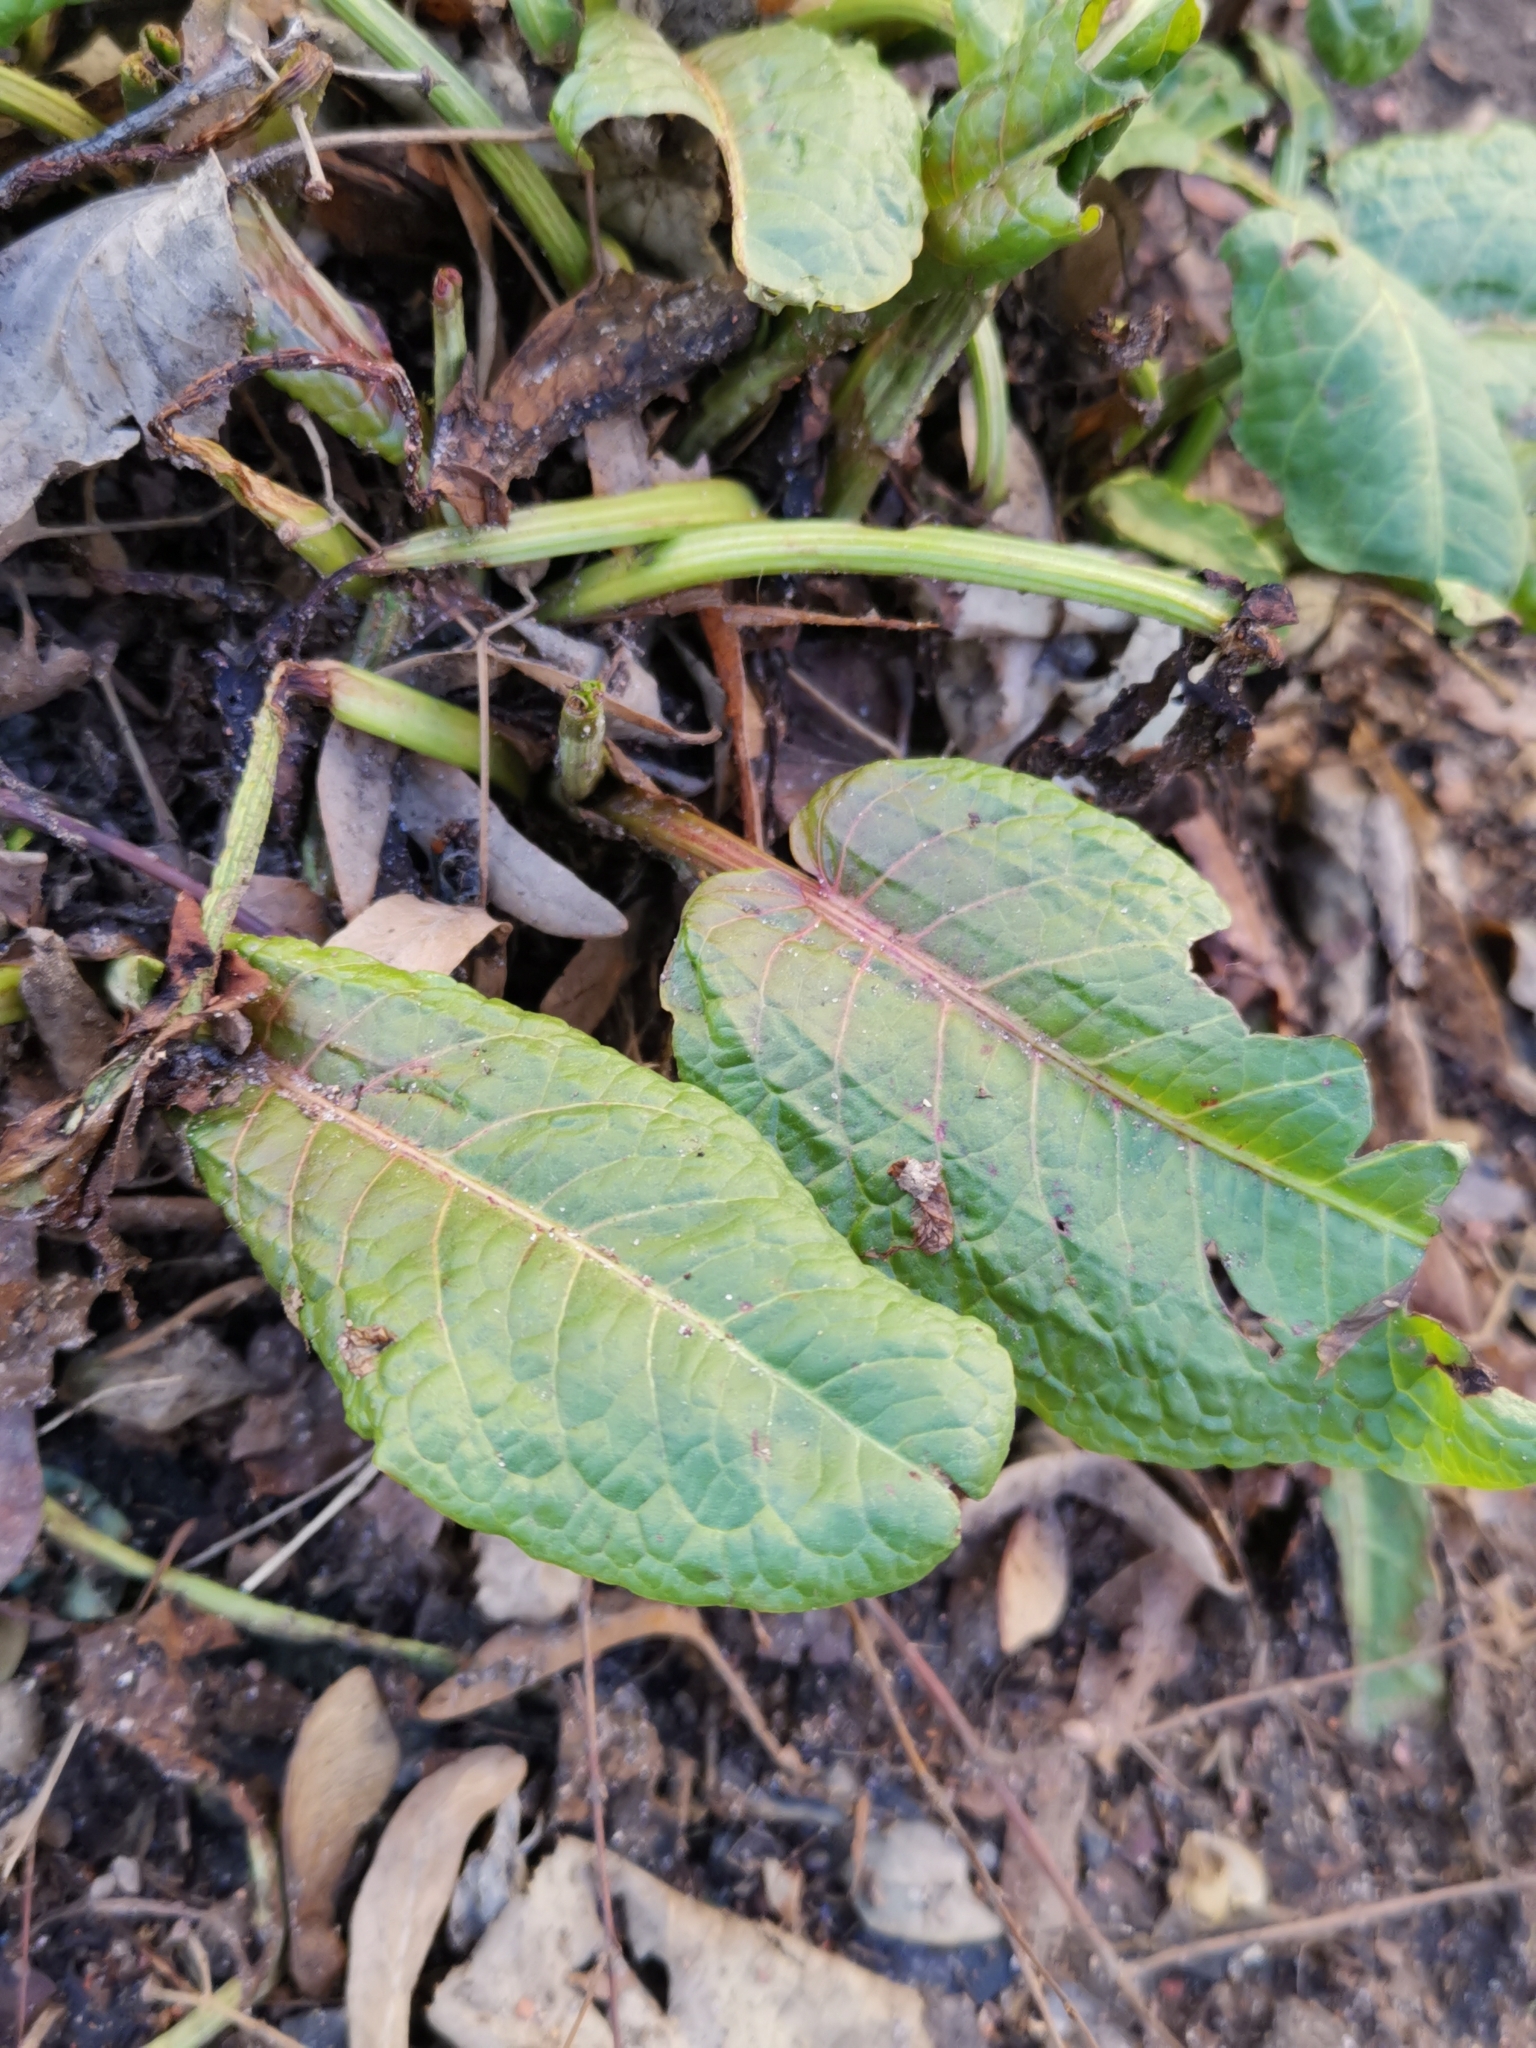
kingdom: Plantae
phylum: Tracheophyta
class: Magnoliopsida
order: Caryophyllales
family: Polygonaceae
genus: Rumex
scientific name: Rumex obtusifolius
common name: Bitter dock
